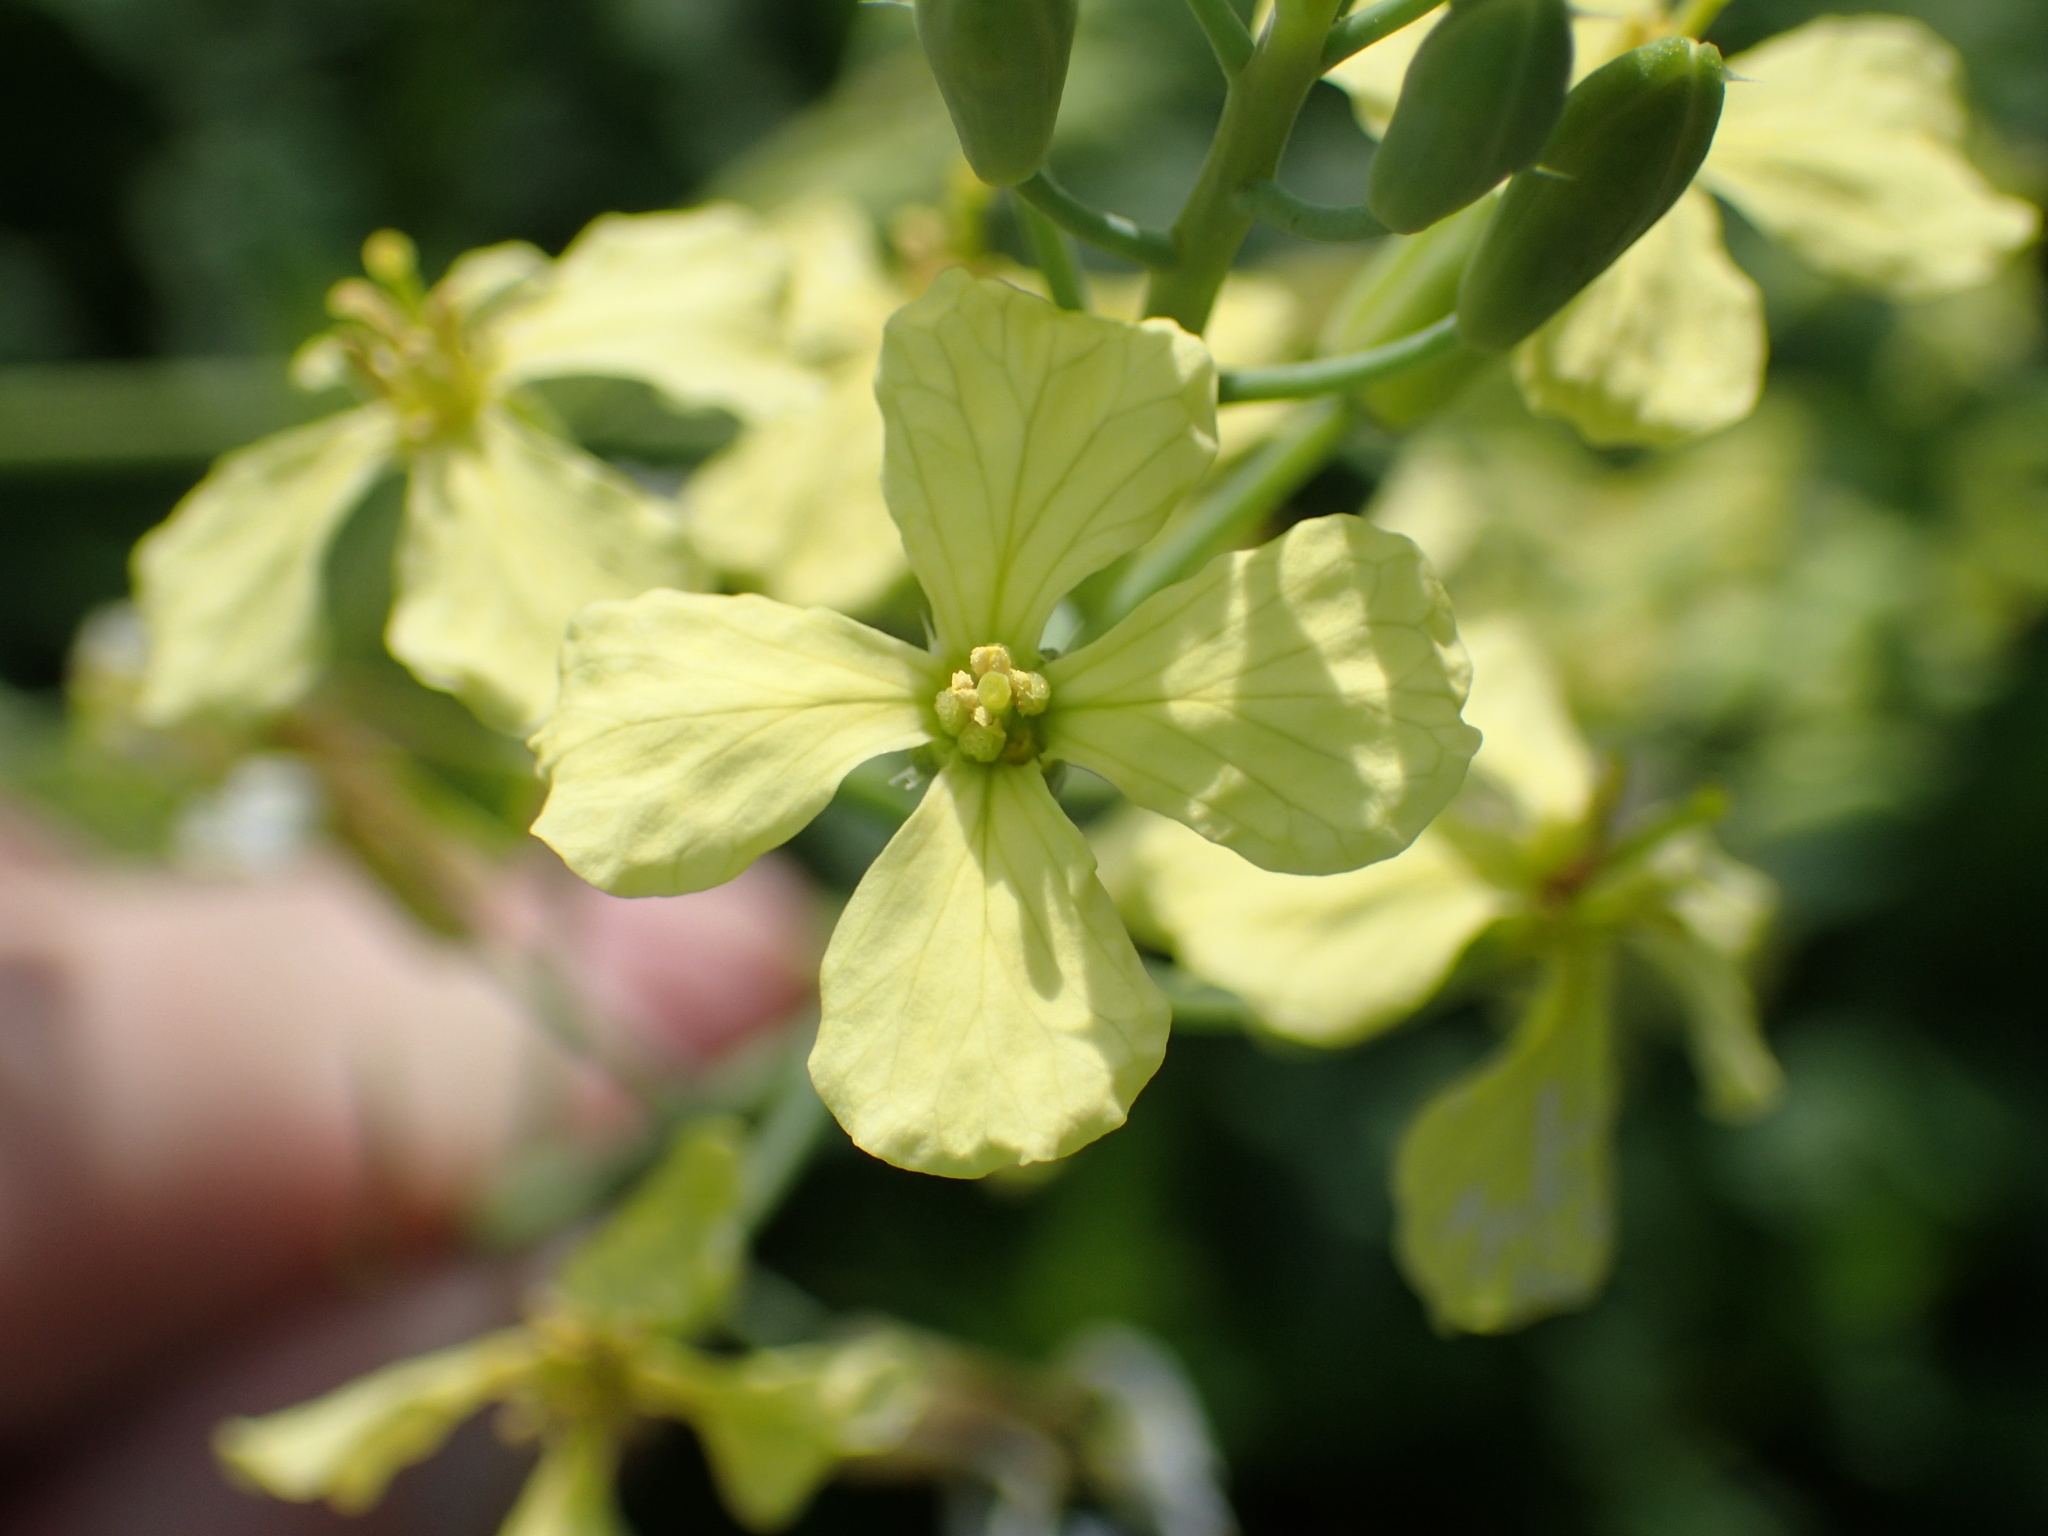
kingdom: Plantae
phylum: Tracheophyta
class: Magnoliopsida
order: Brassicales
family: Brassicaceae
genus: Raphanus
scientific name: Raphanus raphanistrum
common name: Wild radish
